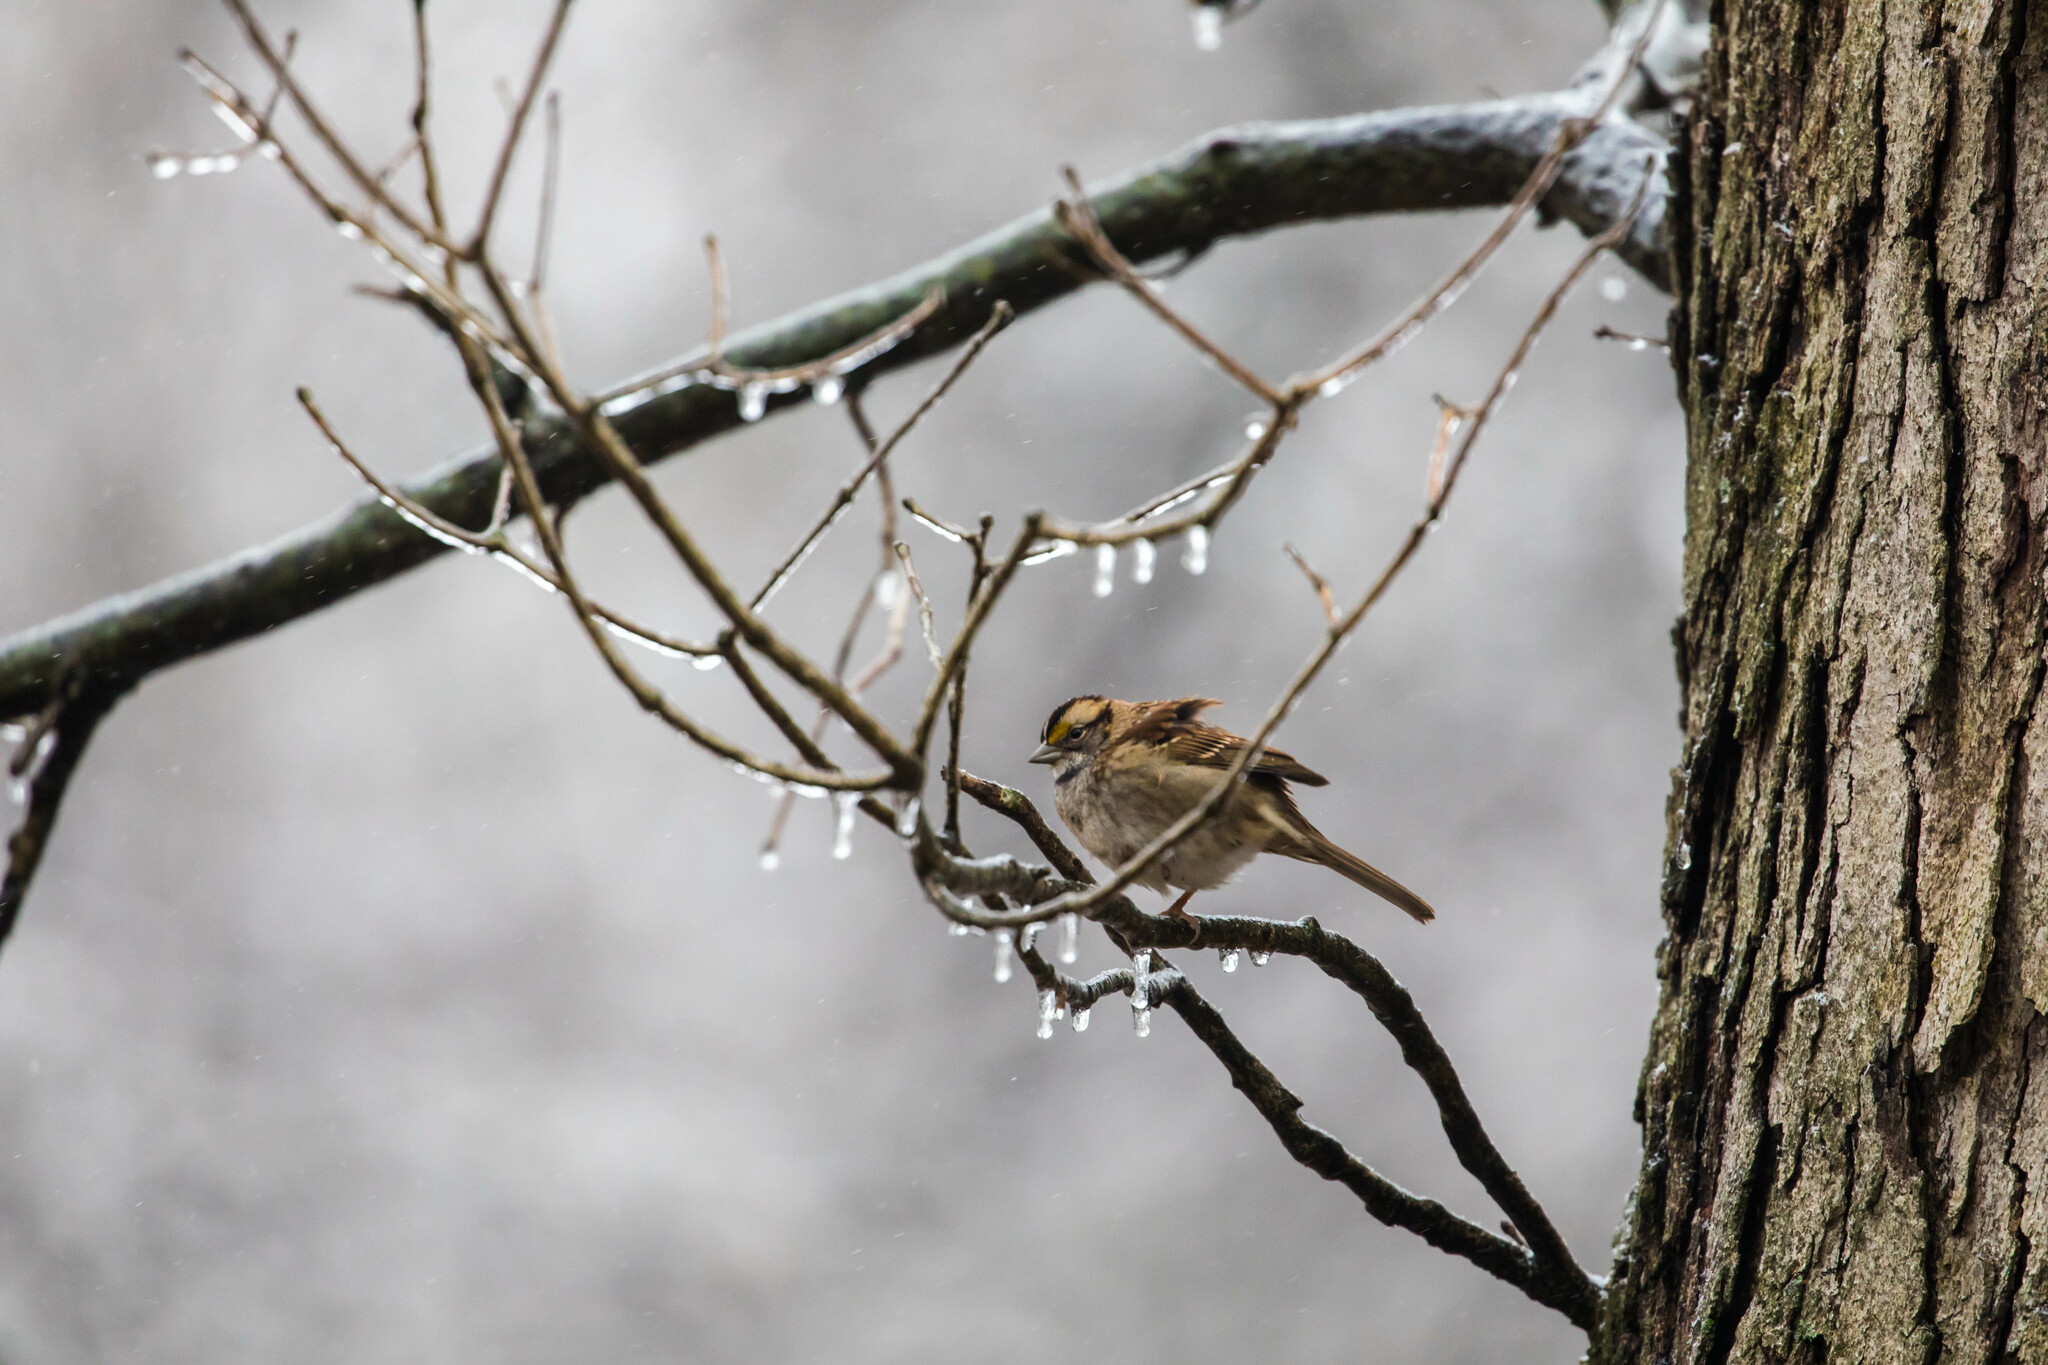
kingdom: Animalia
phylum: Chordata
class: Aves
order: Passeriformes
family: Passerellidae
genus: Zonotrichia
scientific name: Zonotrichia albicollis
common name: White-throated sparrow
